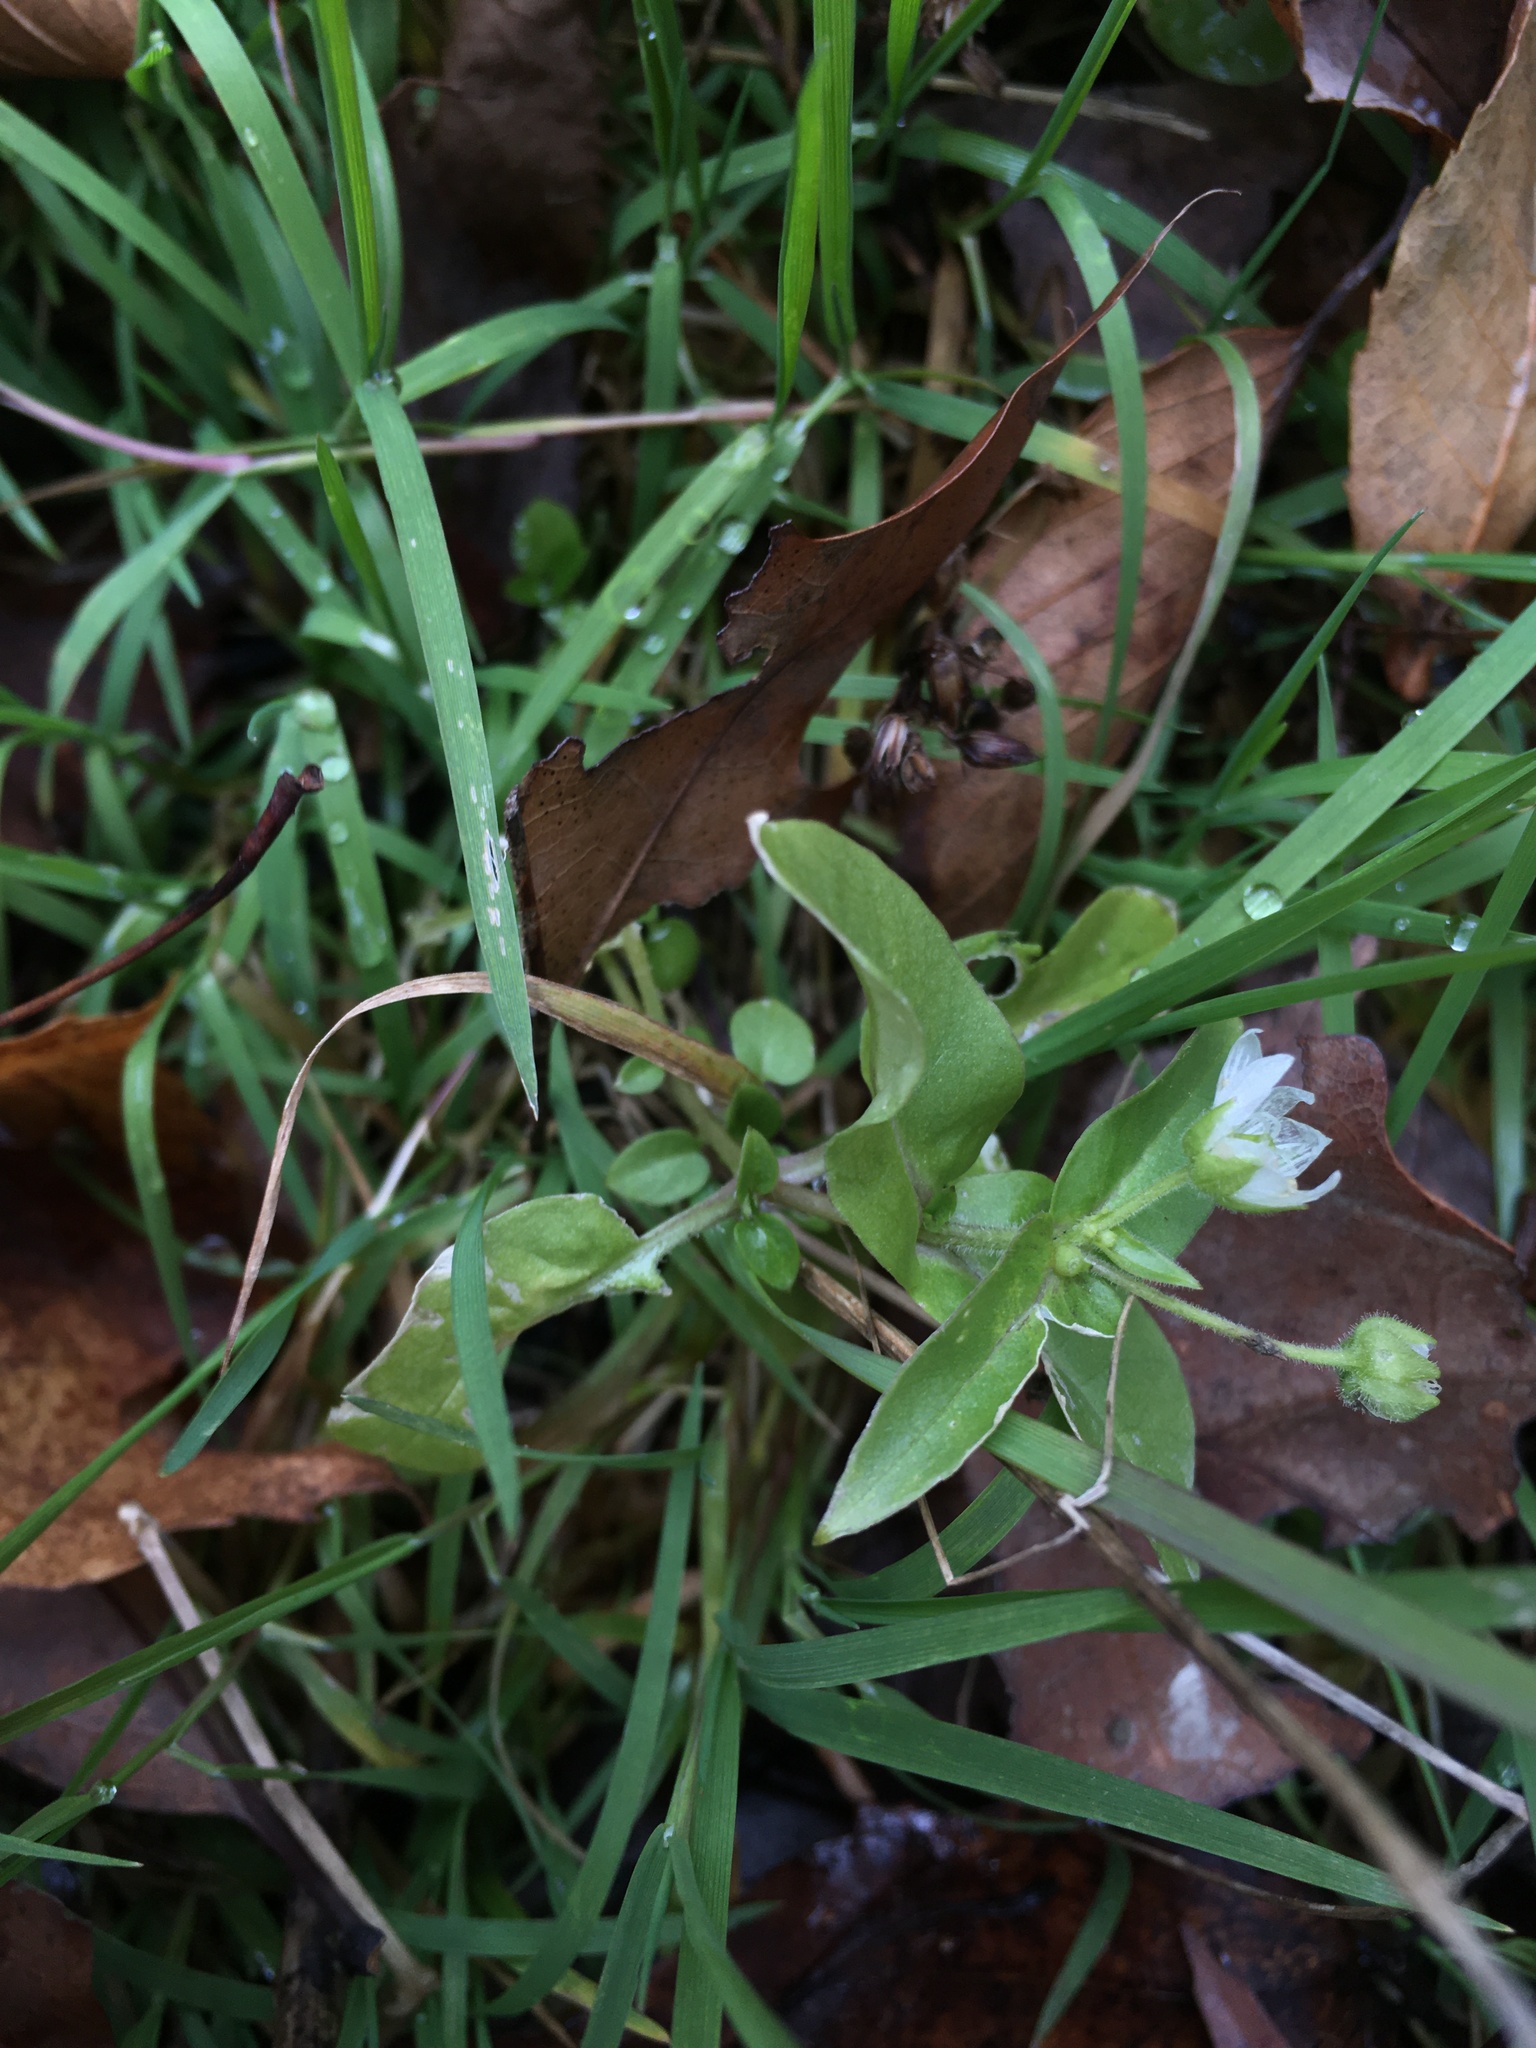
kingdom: Plantae
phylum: Tracheophyta
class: Magnoliopsida
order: Caryophyllales
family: Caryophyllaceae
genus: Stellaria
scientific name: Stellaria aquatica
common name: Water chickweed
